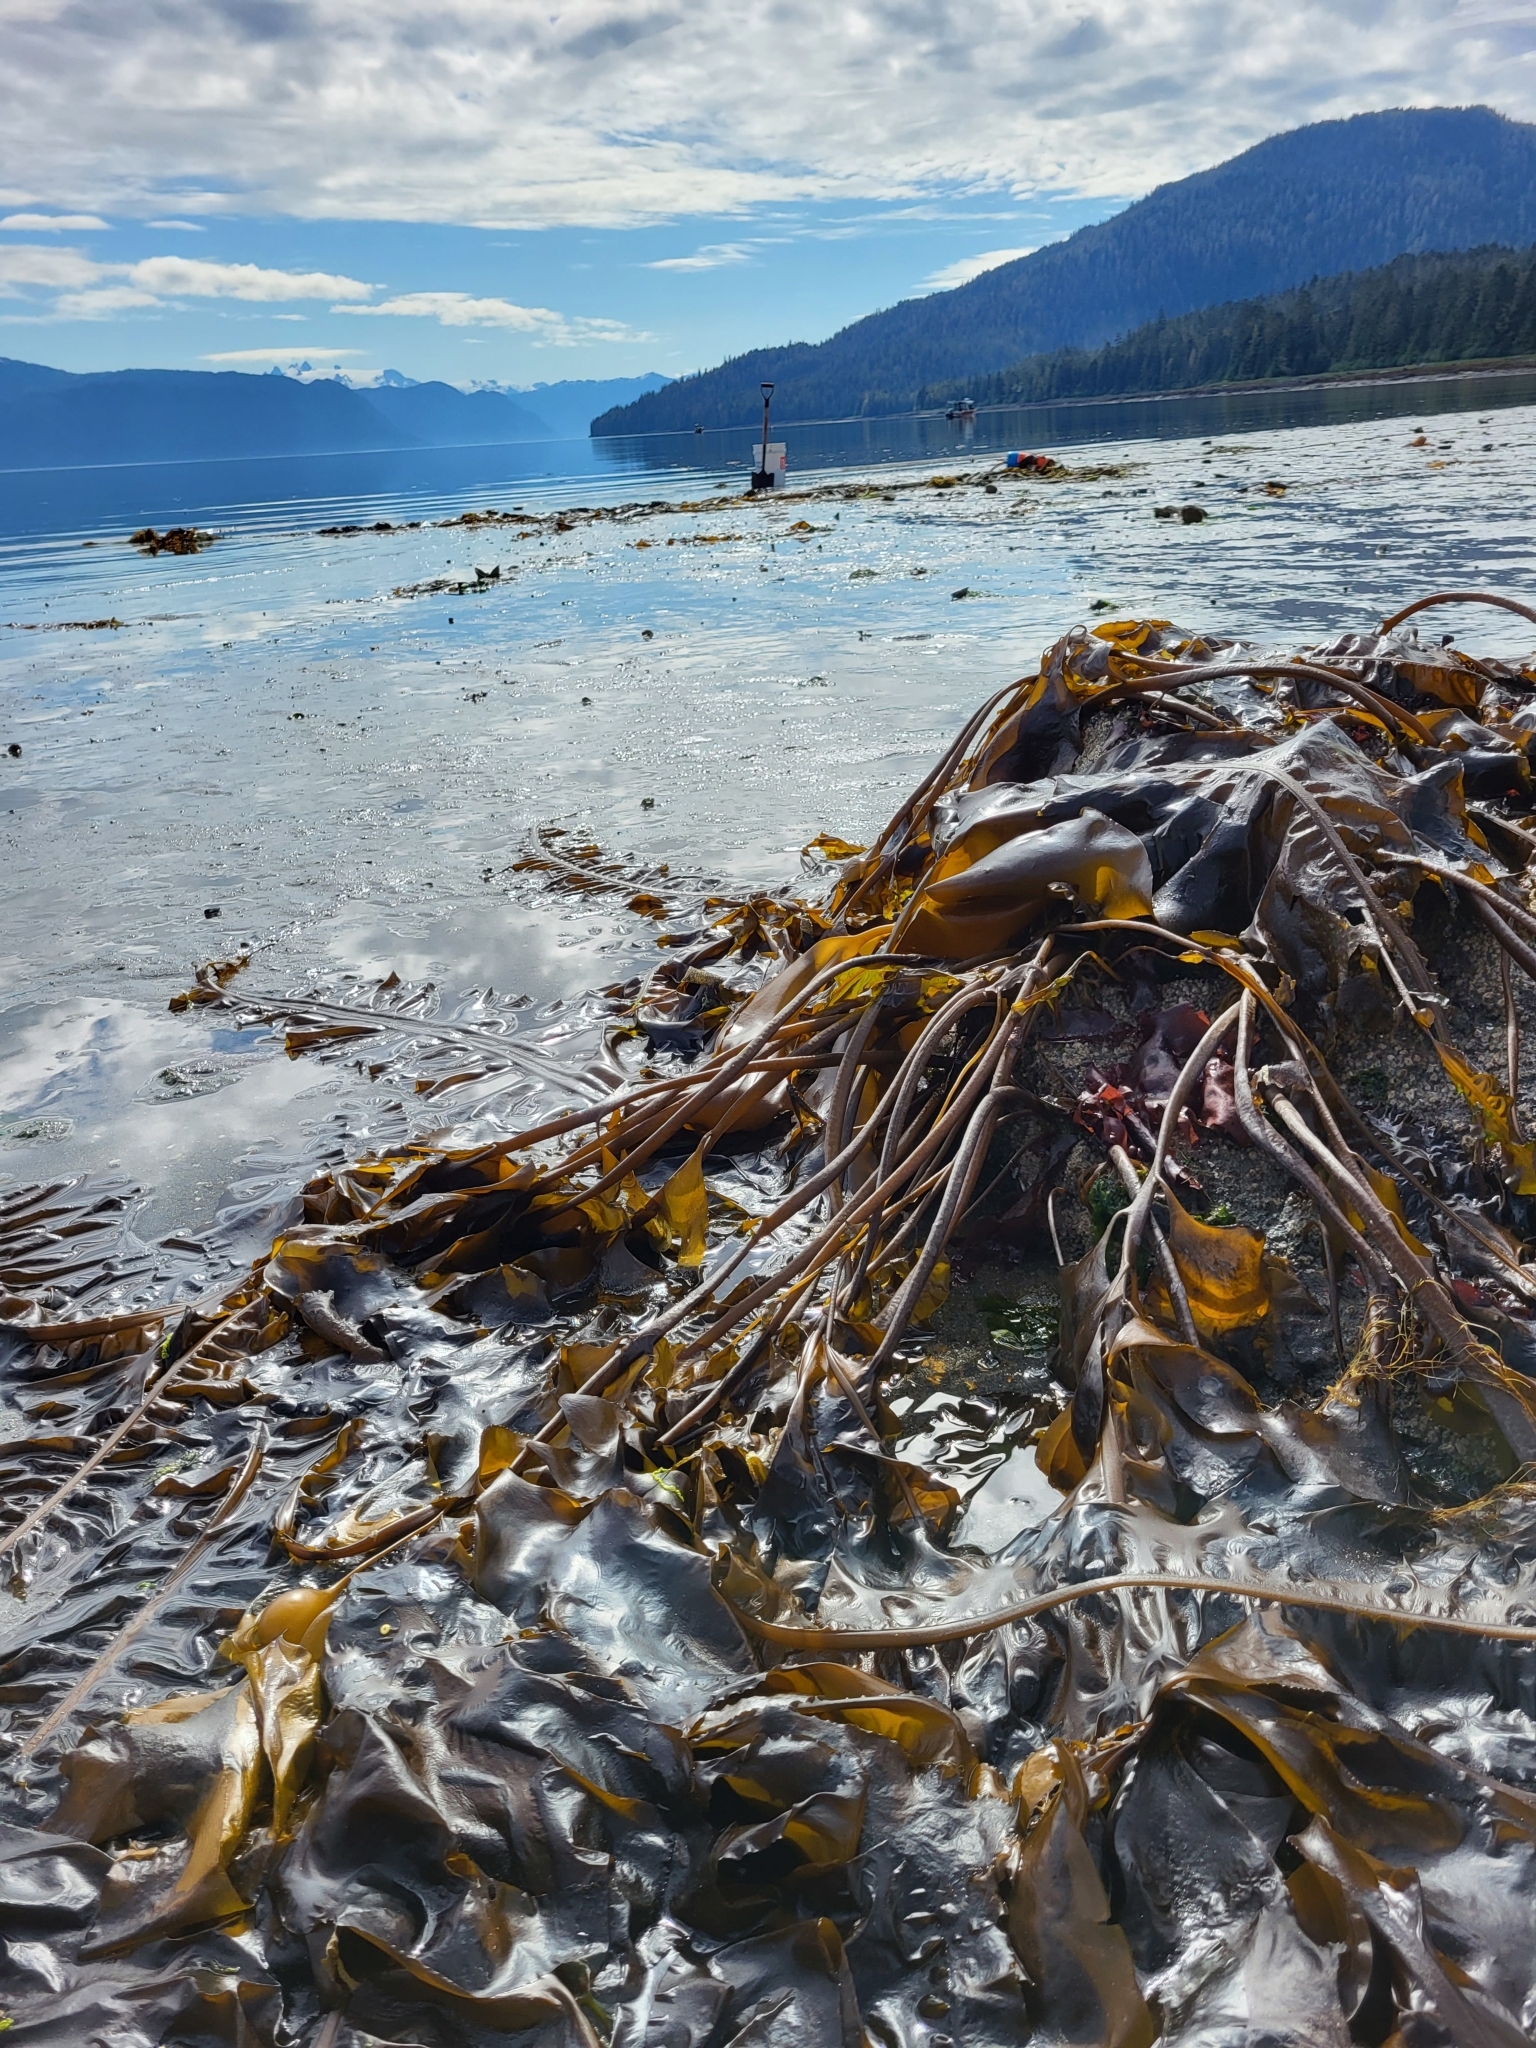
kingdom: Chromista
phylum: Ochrophyta
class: Phaeophyceae
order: Laminariales
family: Alariaceae
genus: Alaria
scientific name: Alaria marginata
